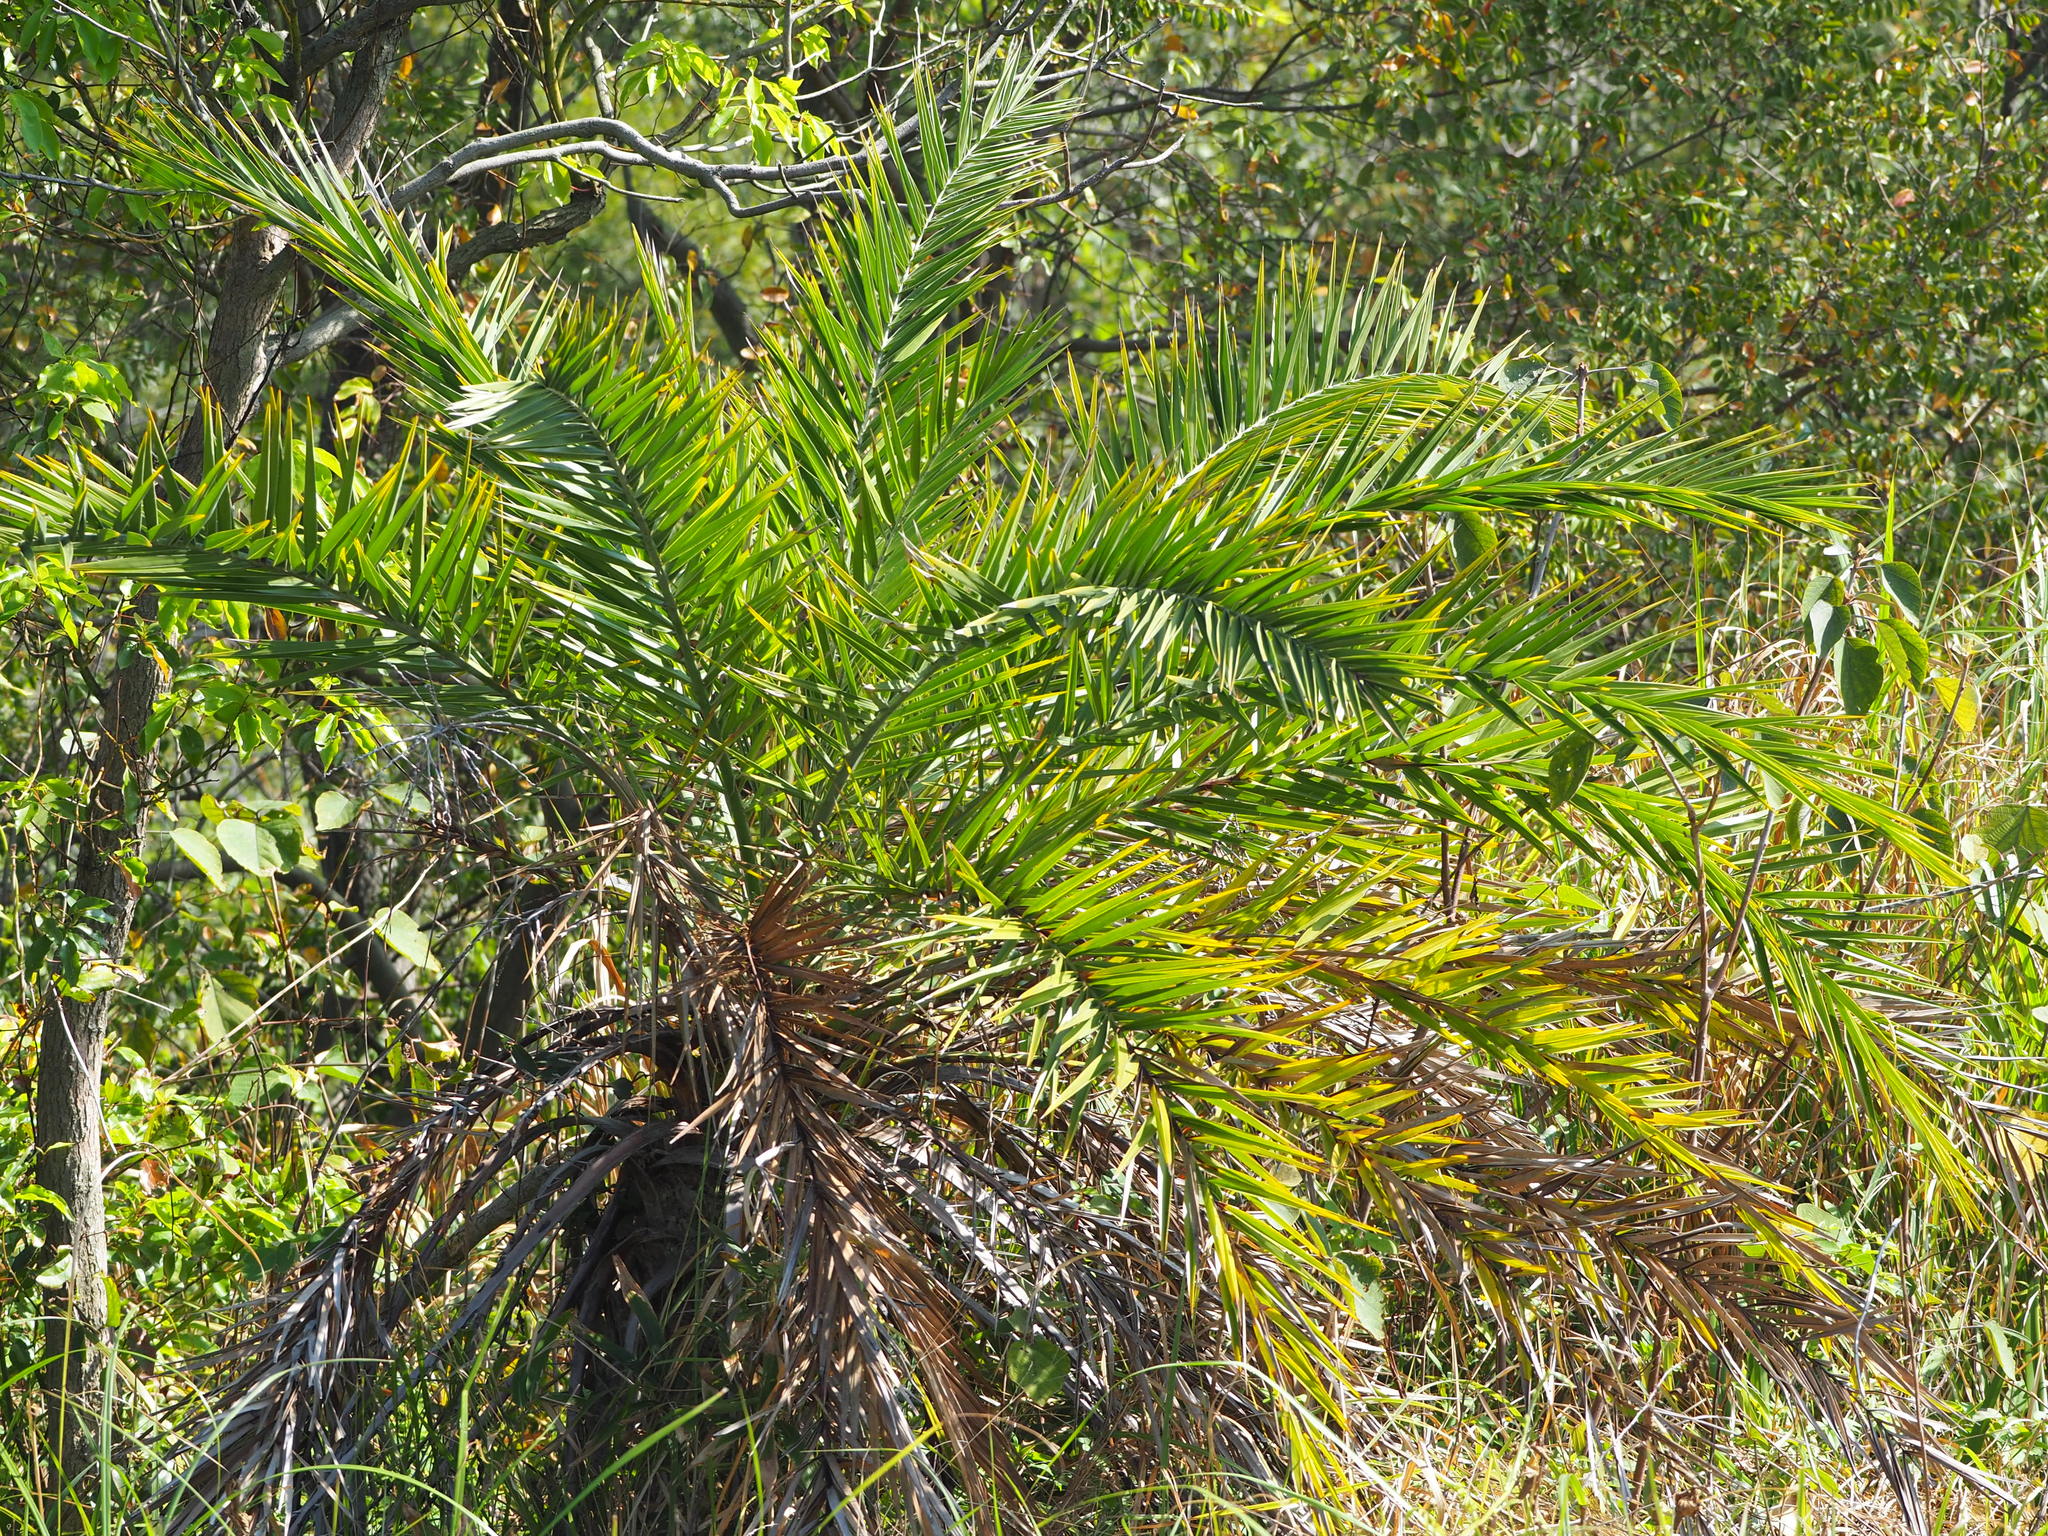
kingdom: Plantae
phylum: Tracheophyta
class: Liliopsida
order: Arecales
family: Arecaceae
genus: Phoenix
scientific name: Phoenix loureiroi
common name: Loureiro's palm
